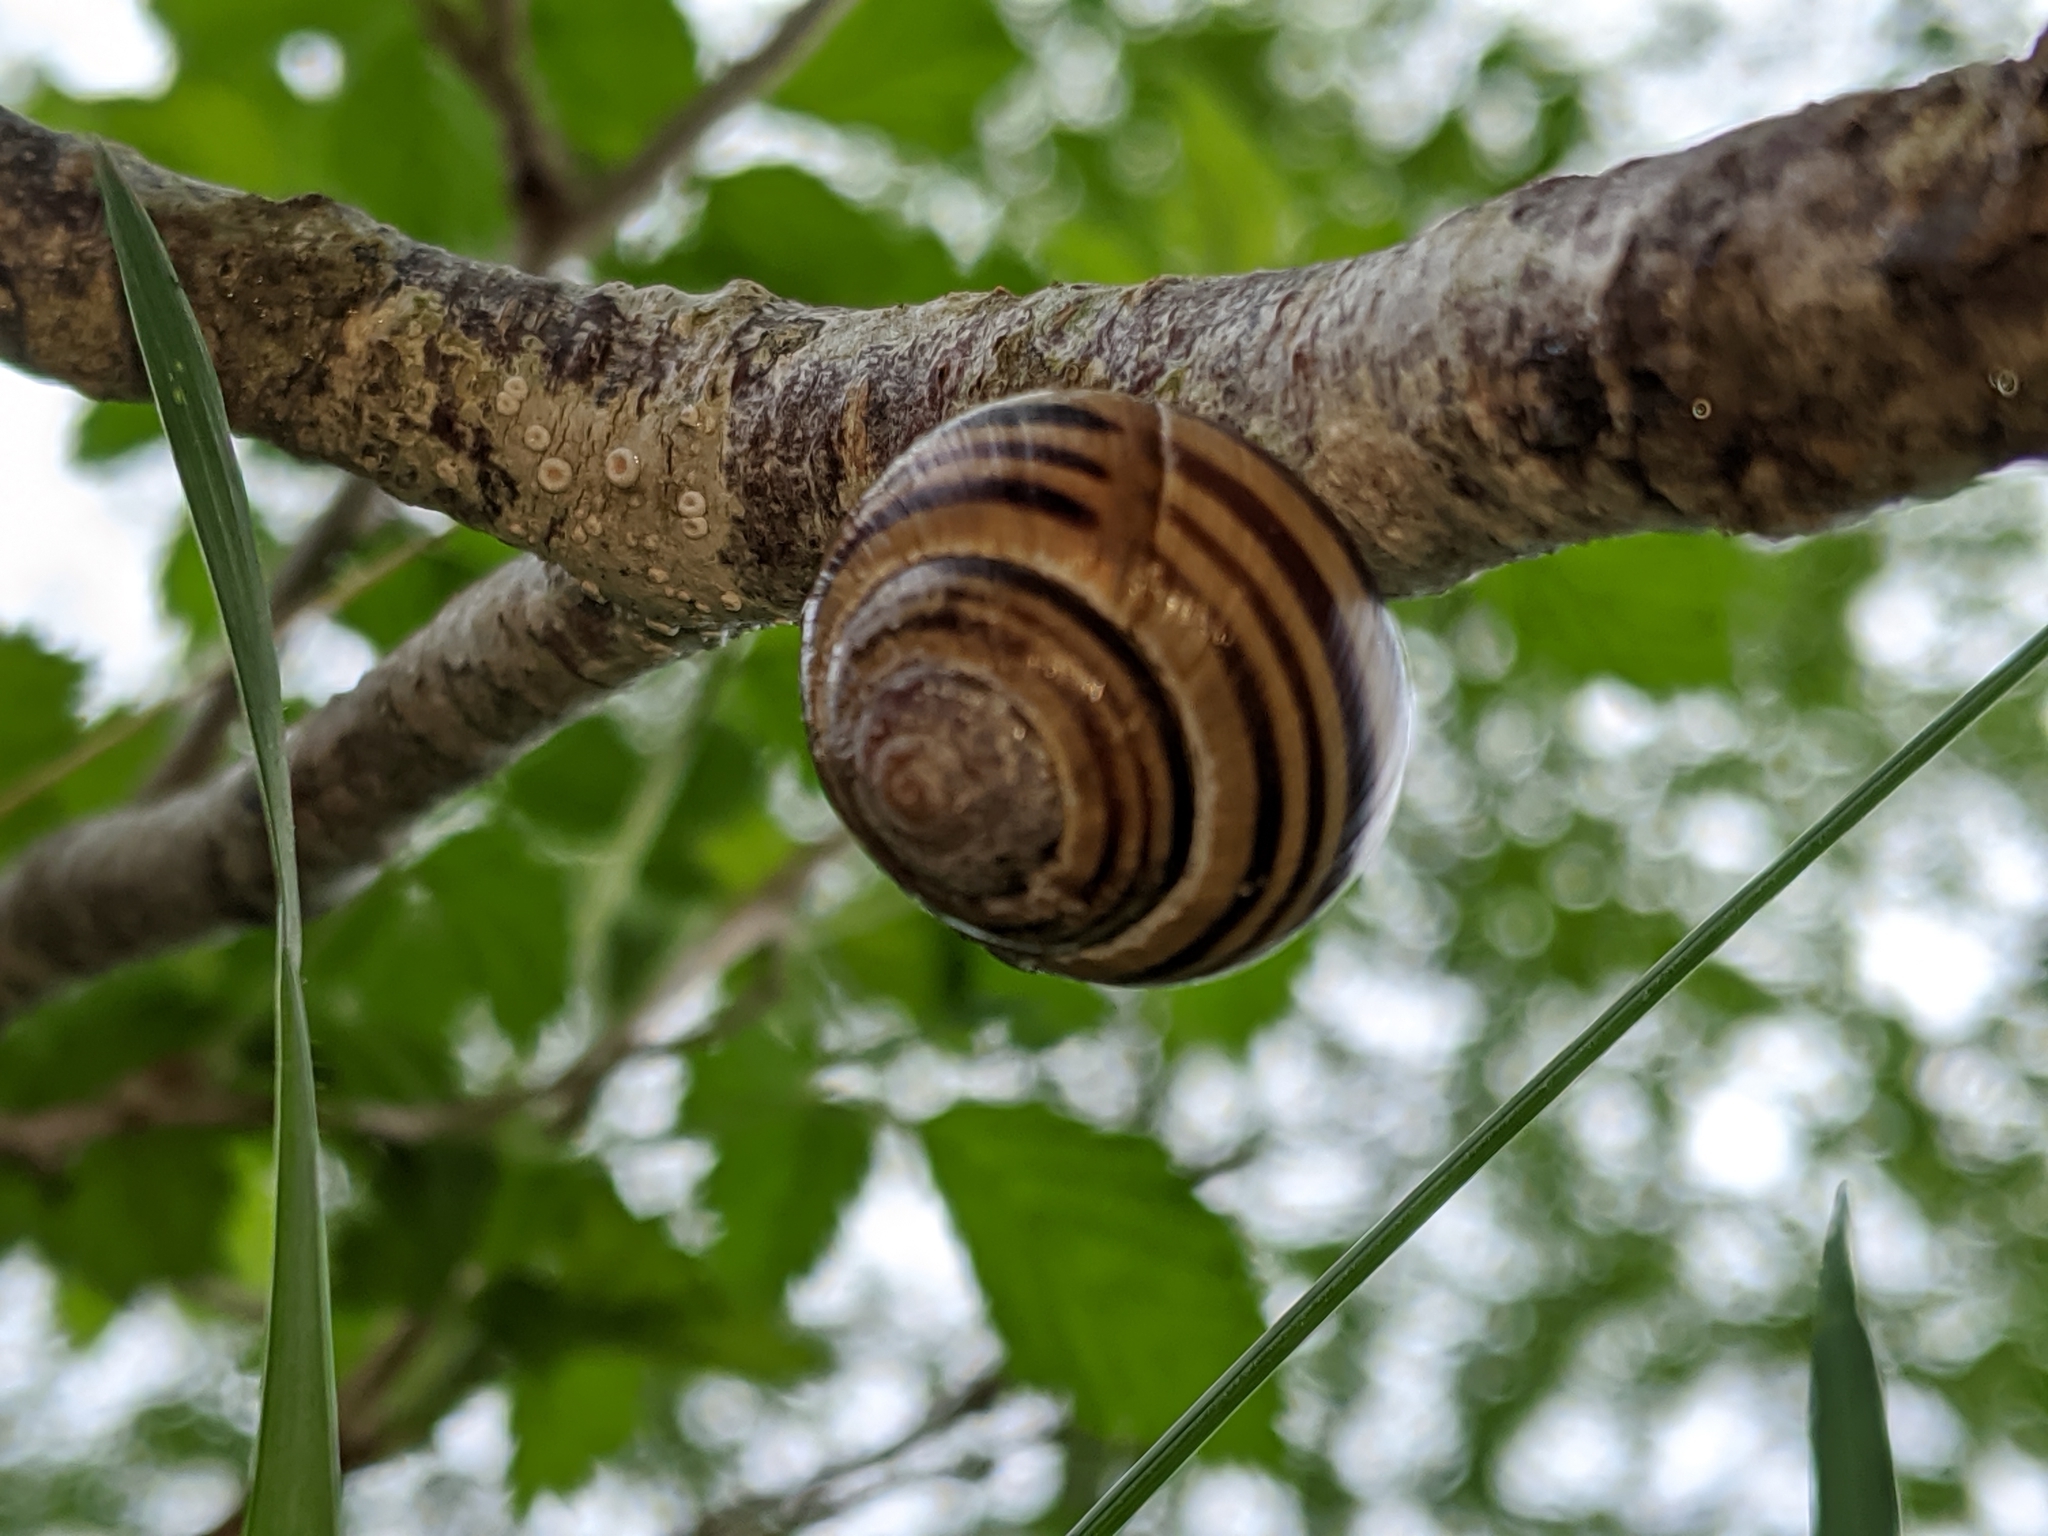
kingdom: Animalia
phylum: Mollusca
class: Gastropoda
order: Stylommatophora
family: Helicidae
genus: Cepaea
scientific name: Cepaea nemoralis
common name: Grovesnail
